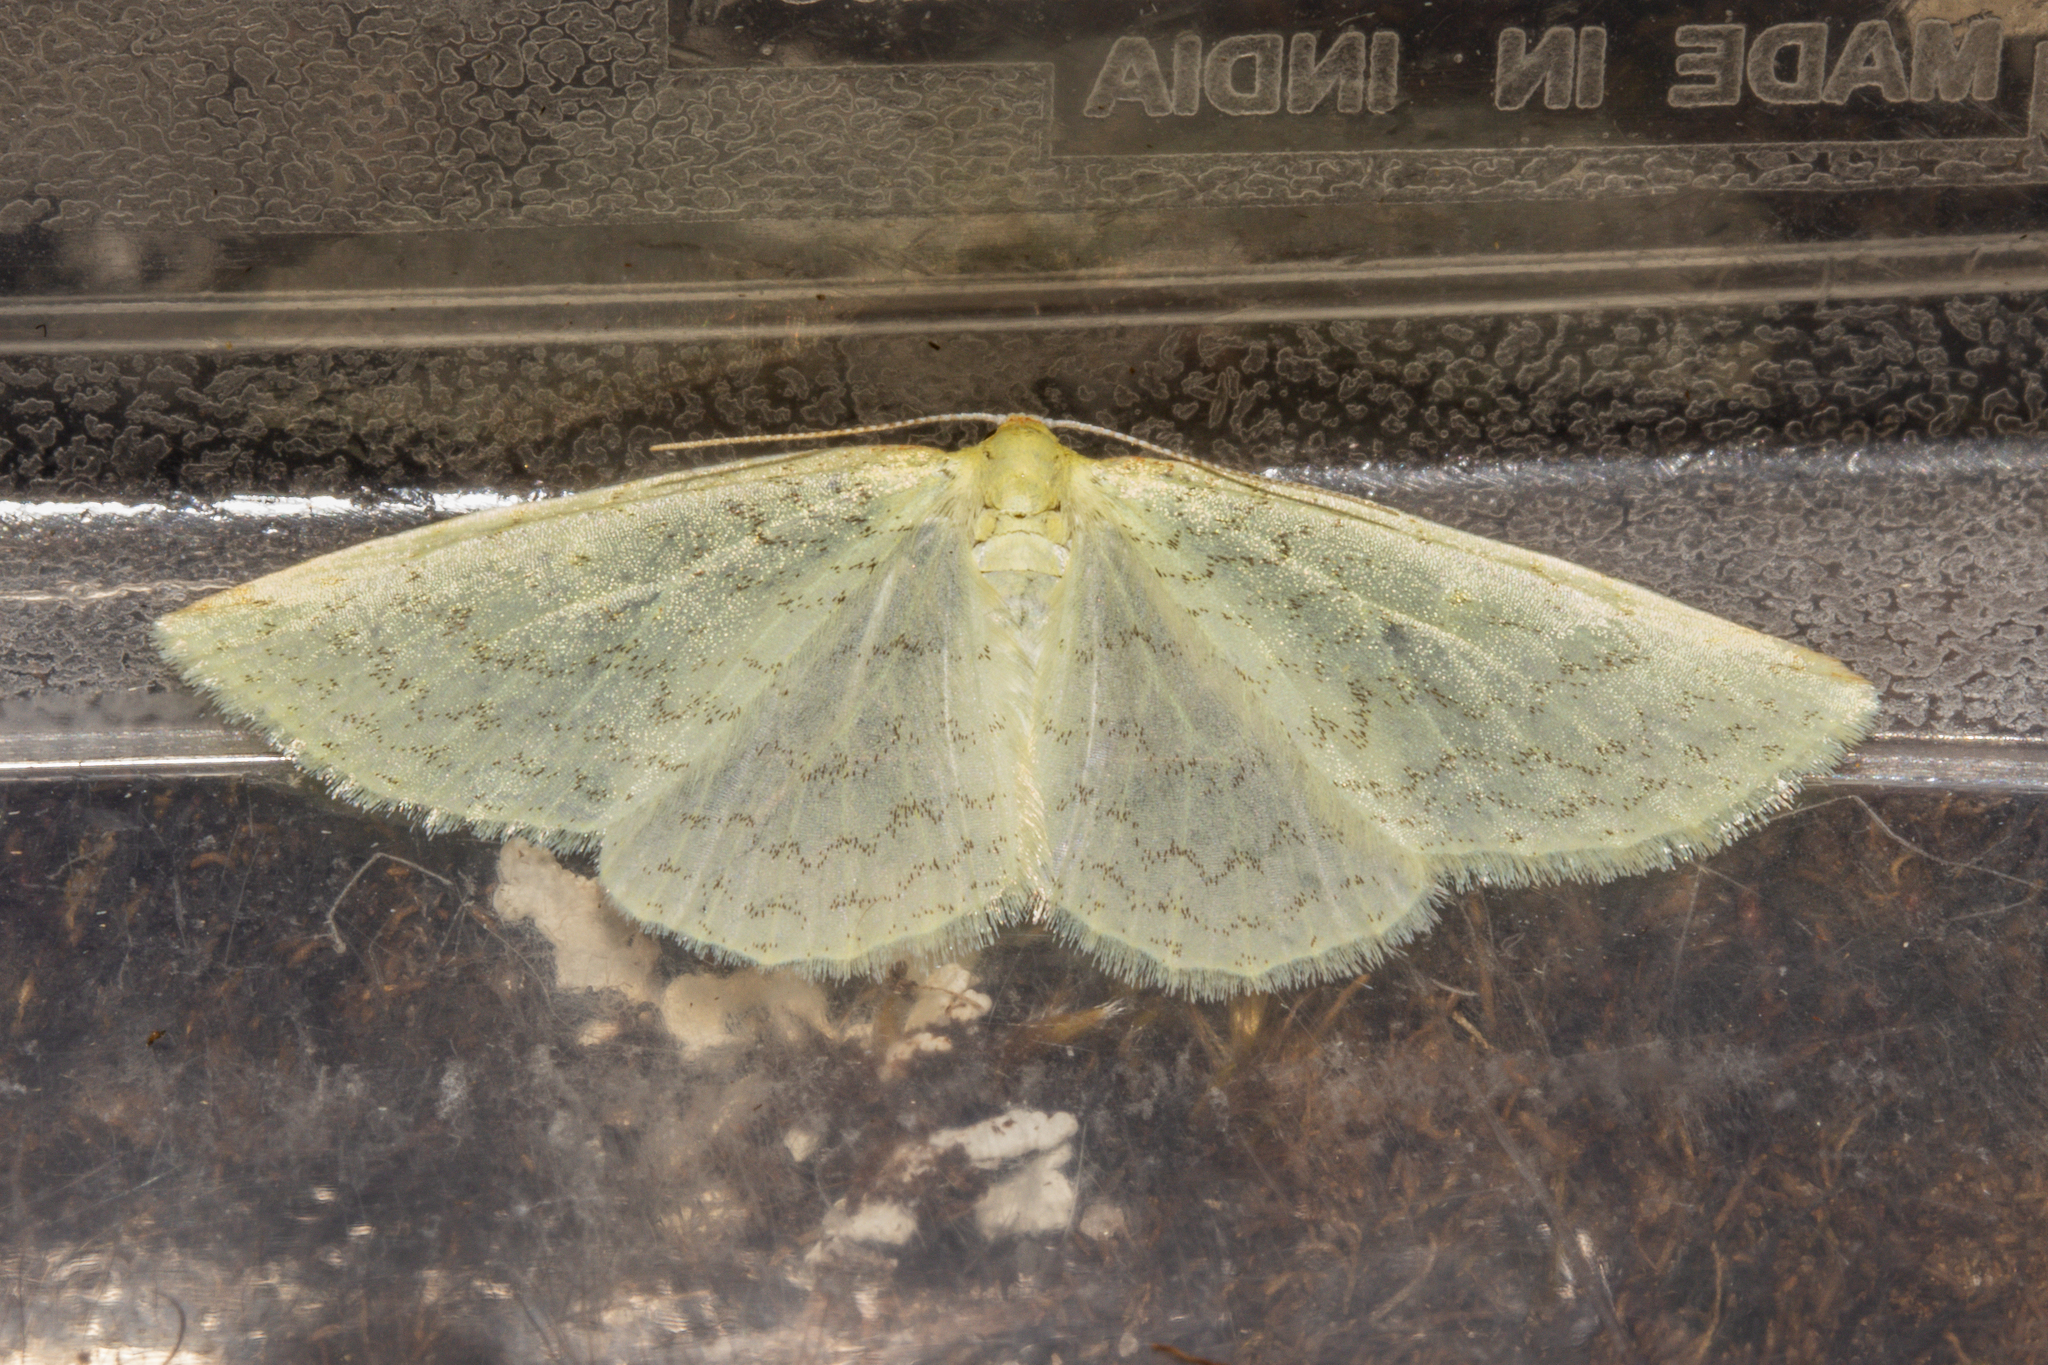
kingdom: Animalia
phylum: Arthropoda
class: Insecta
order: Lepidoptera
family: Geometridae
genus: Epiphryne
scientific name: Epiphryne undosata
